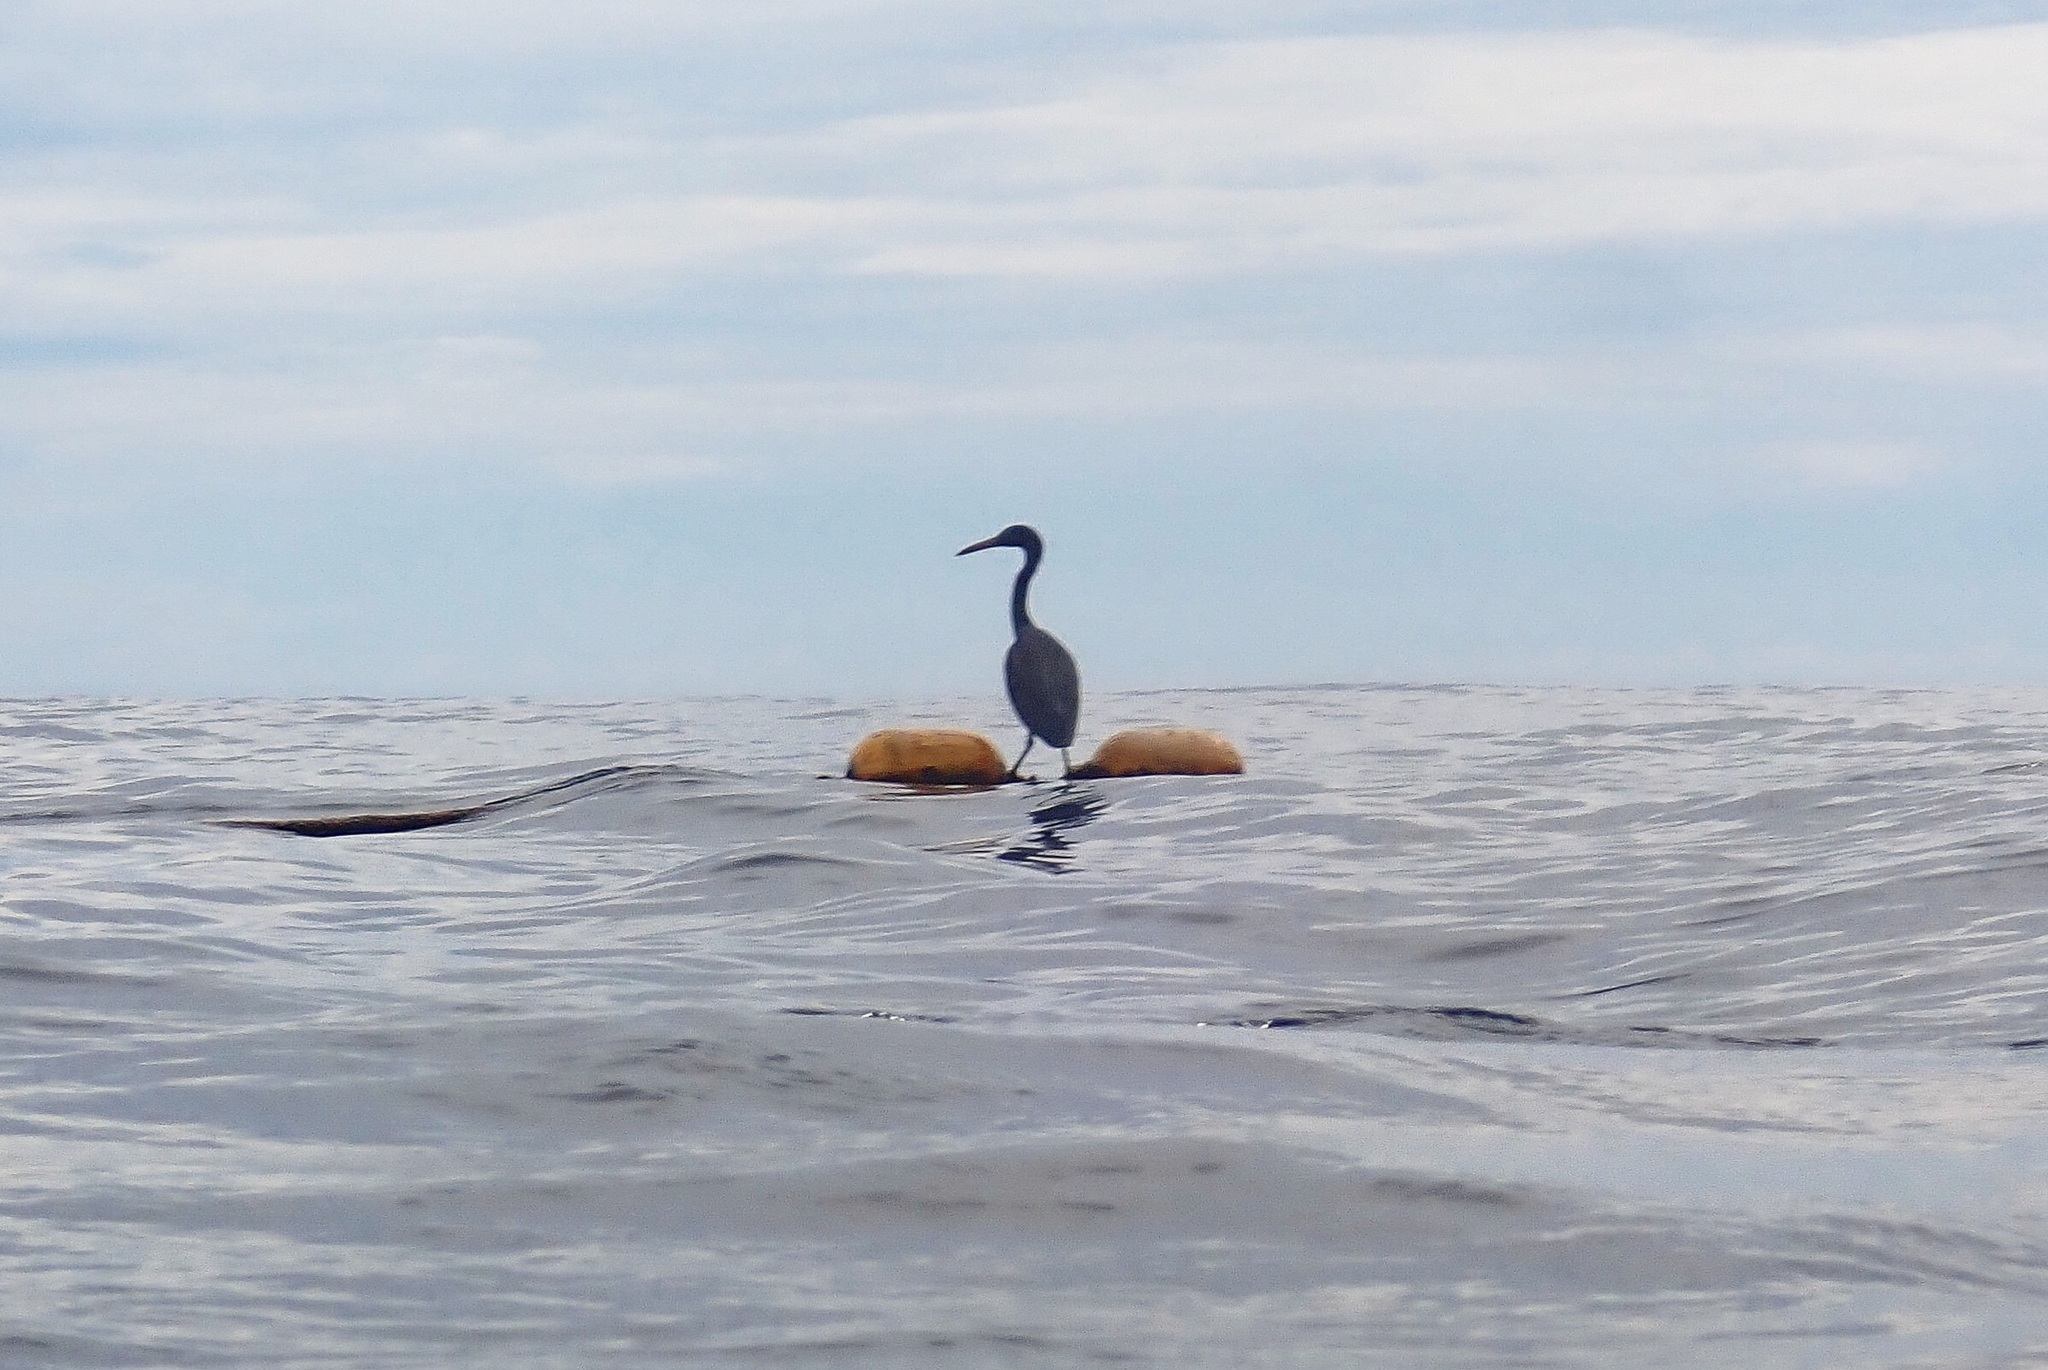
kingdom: Animalia
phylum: Chordata
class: Aves
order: Pelecaniformes
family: Ardeidae
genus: Egretta
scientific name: Egretta sacra
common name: Pacific reef heron
